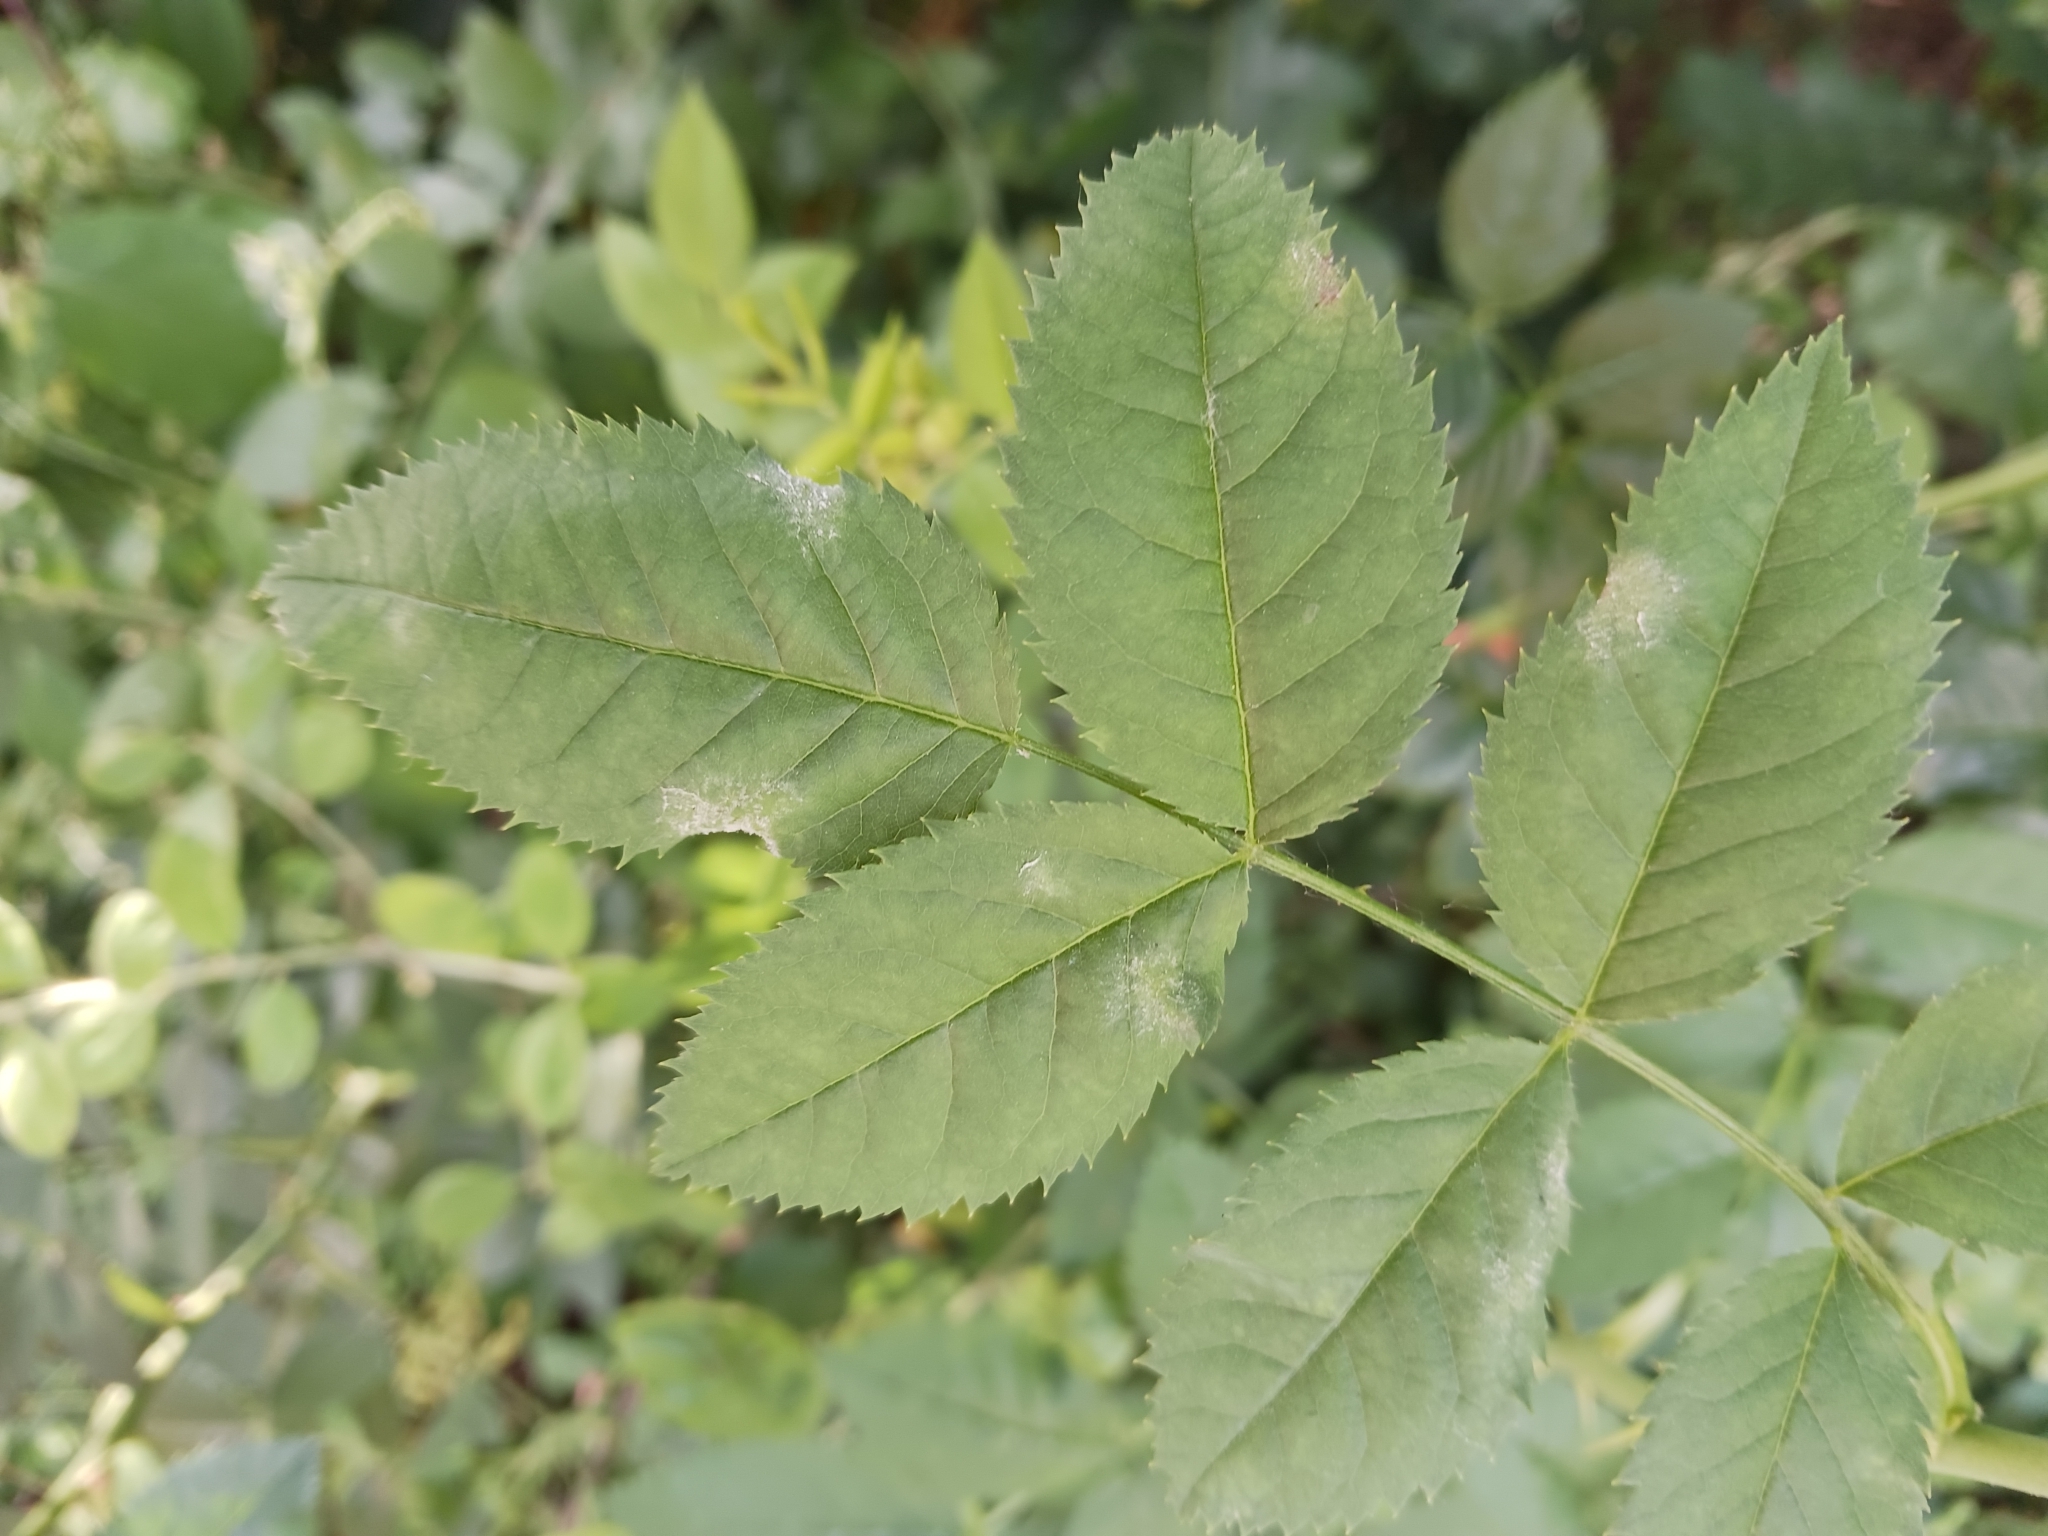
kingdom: Fungi
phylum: Ascomycota
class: Leotiomycetes
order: Helotiales
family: Erysiphaceae
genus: Podosphaera
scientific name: Podosphaera pannosa
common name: Rose mildew
